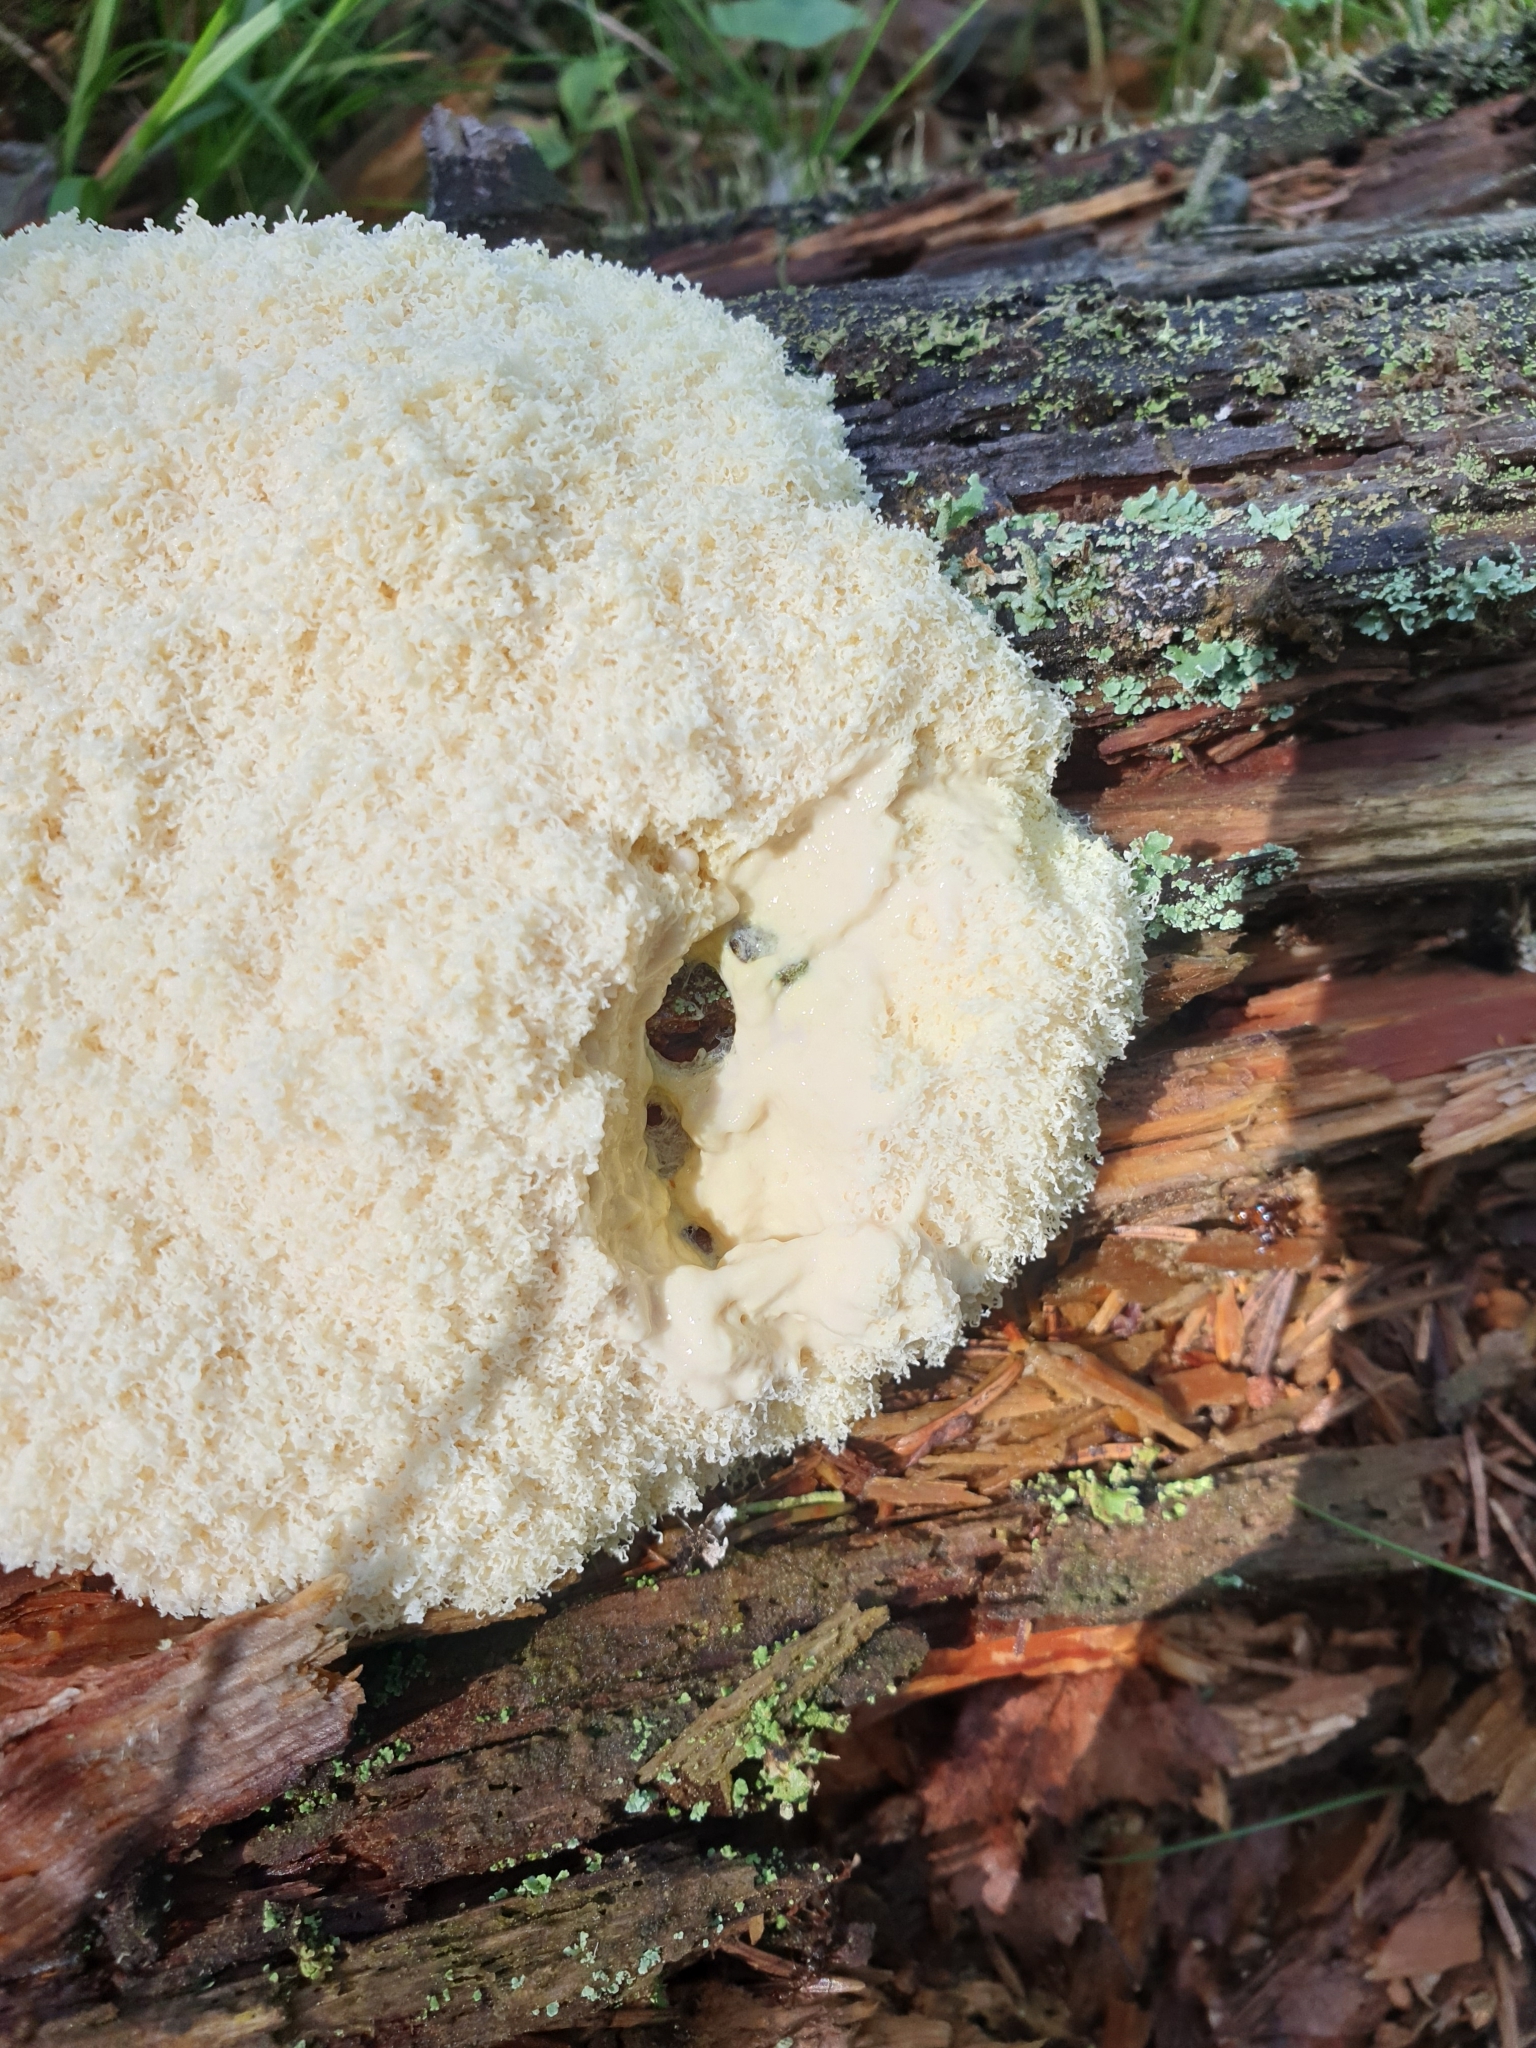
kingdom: Protozoa
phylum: Mycetozoa
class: Myxomycetes
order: Physarales
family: Physaraceae
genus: Fuligo
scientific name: Fuligo septica
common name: Dog vomit slime mold
